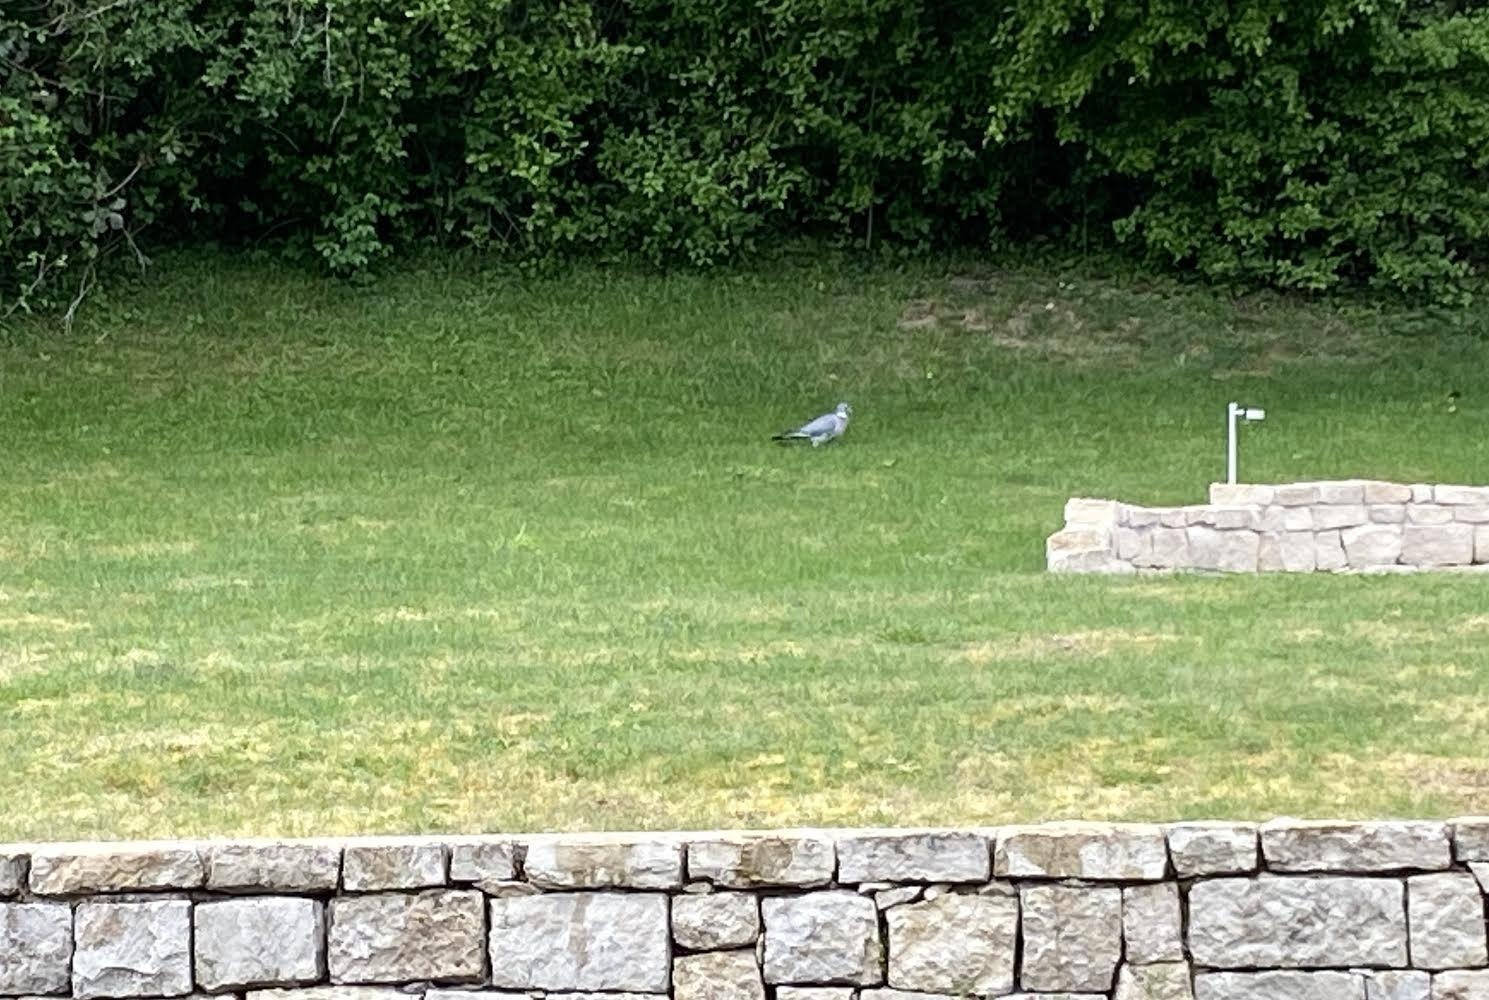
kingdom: Animalia
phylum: Chordata
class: Aves
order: Columbiformes
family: Columbidae
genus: Columba
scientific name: Columba palumbus
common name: Common wood pigeon
